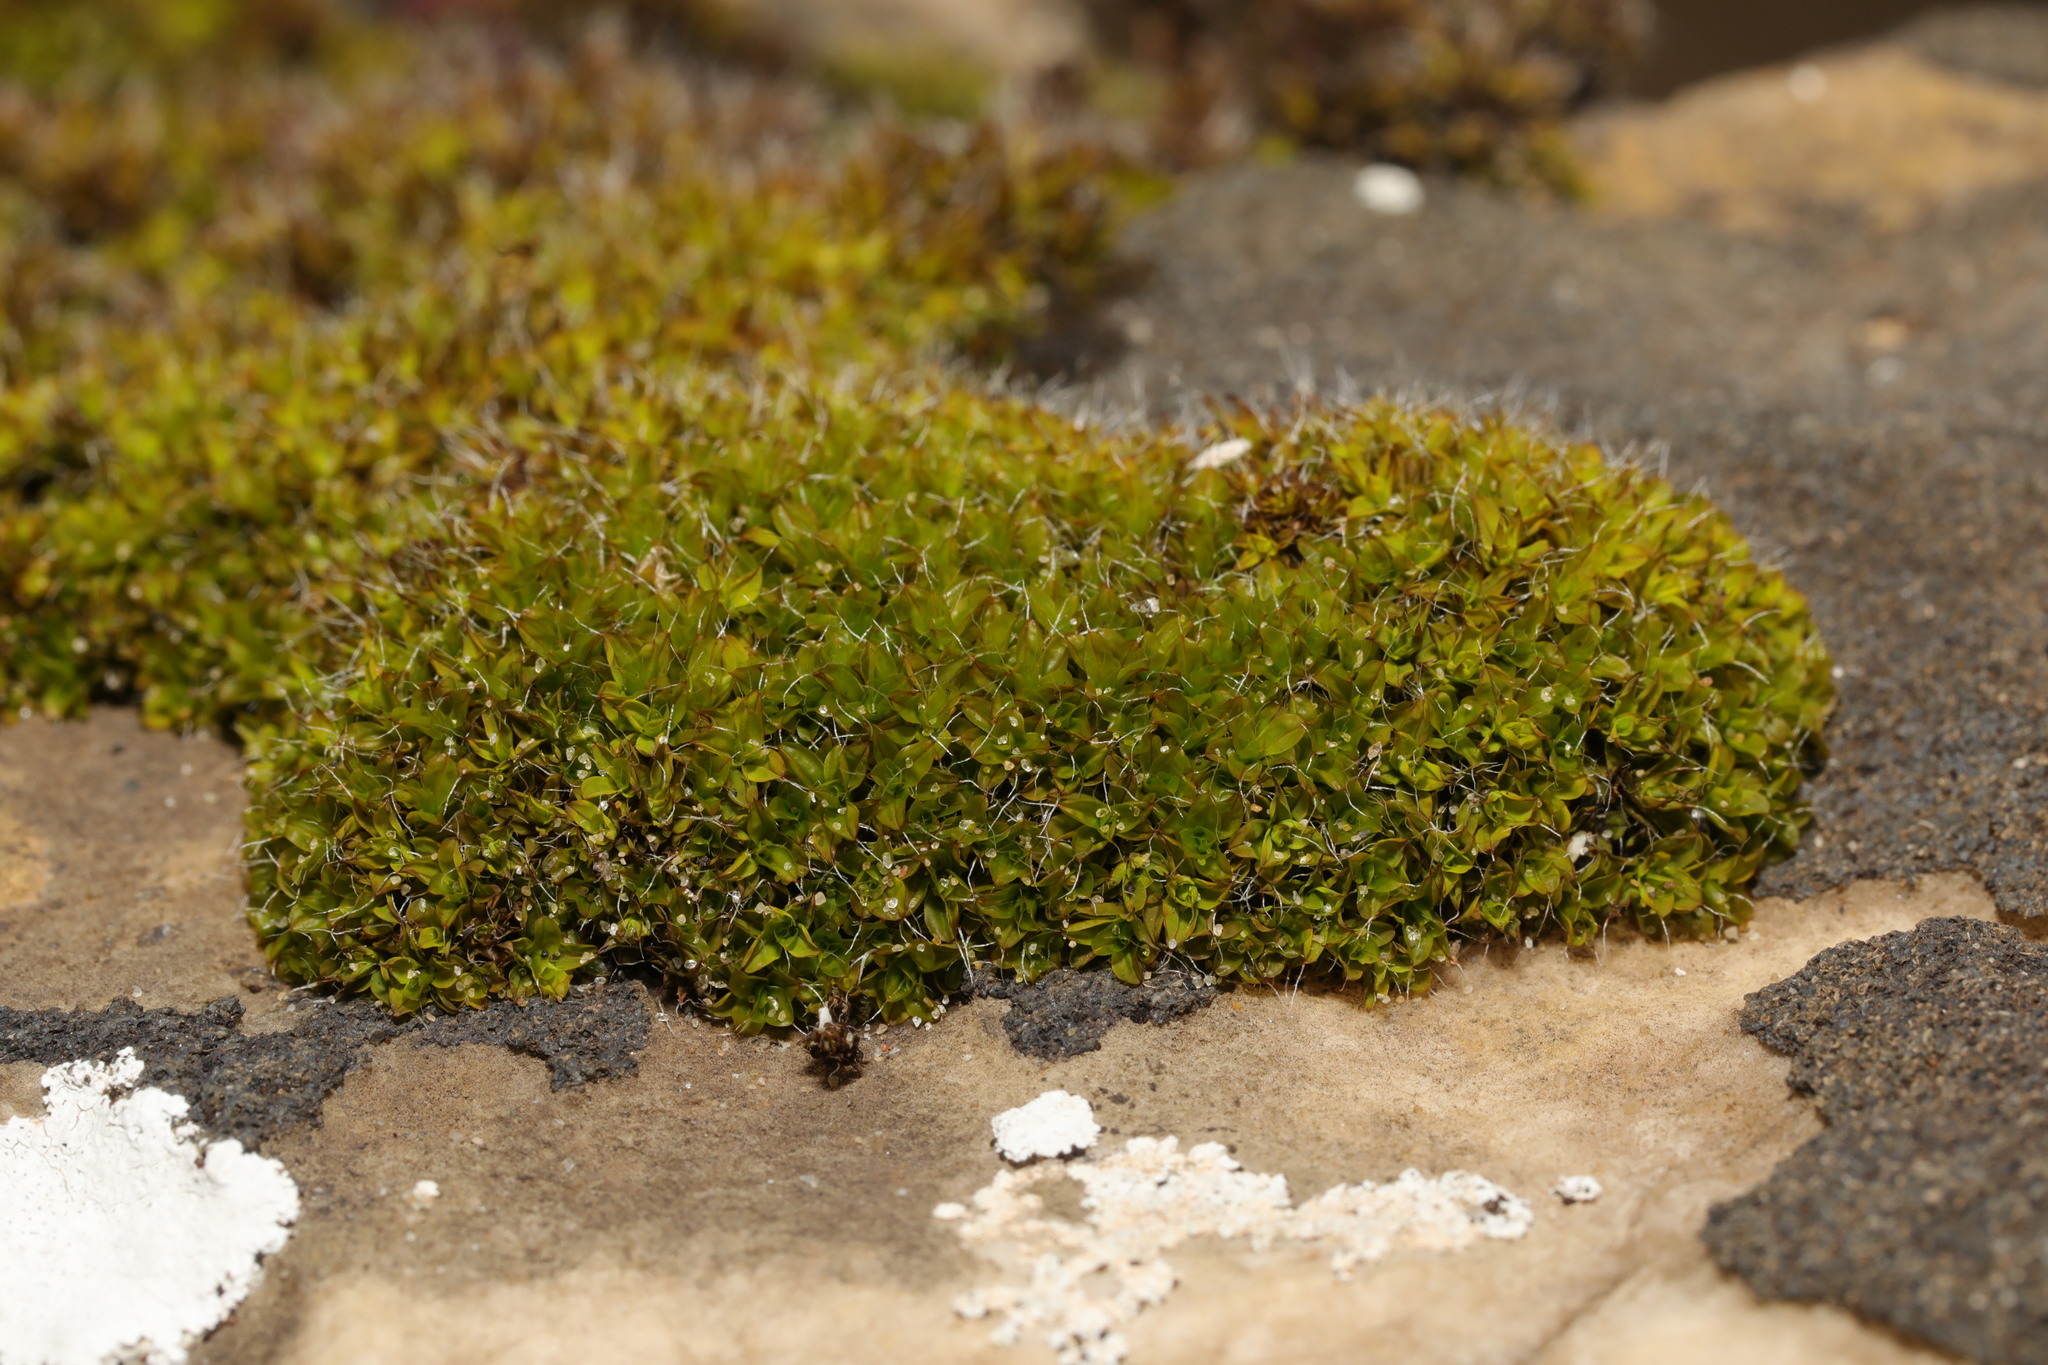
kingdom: Plantae
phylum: Bryophyta
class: Bryopsida
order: Pottiales
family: Pottiaceae
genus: Tortula
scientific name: Tortula muralis
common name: Wall screw-moss
